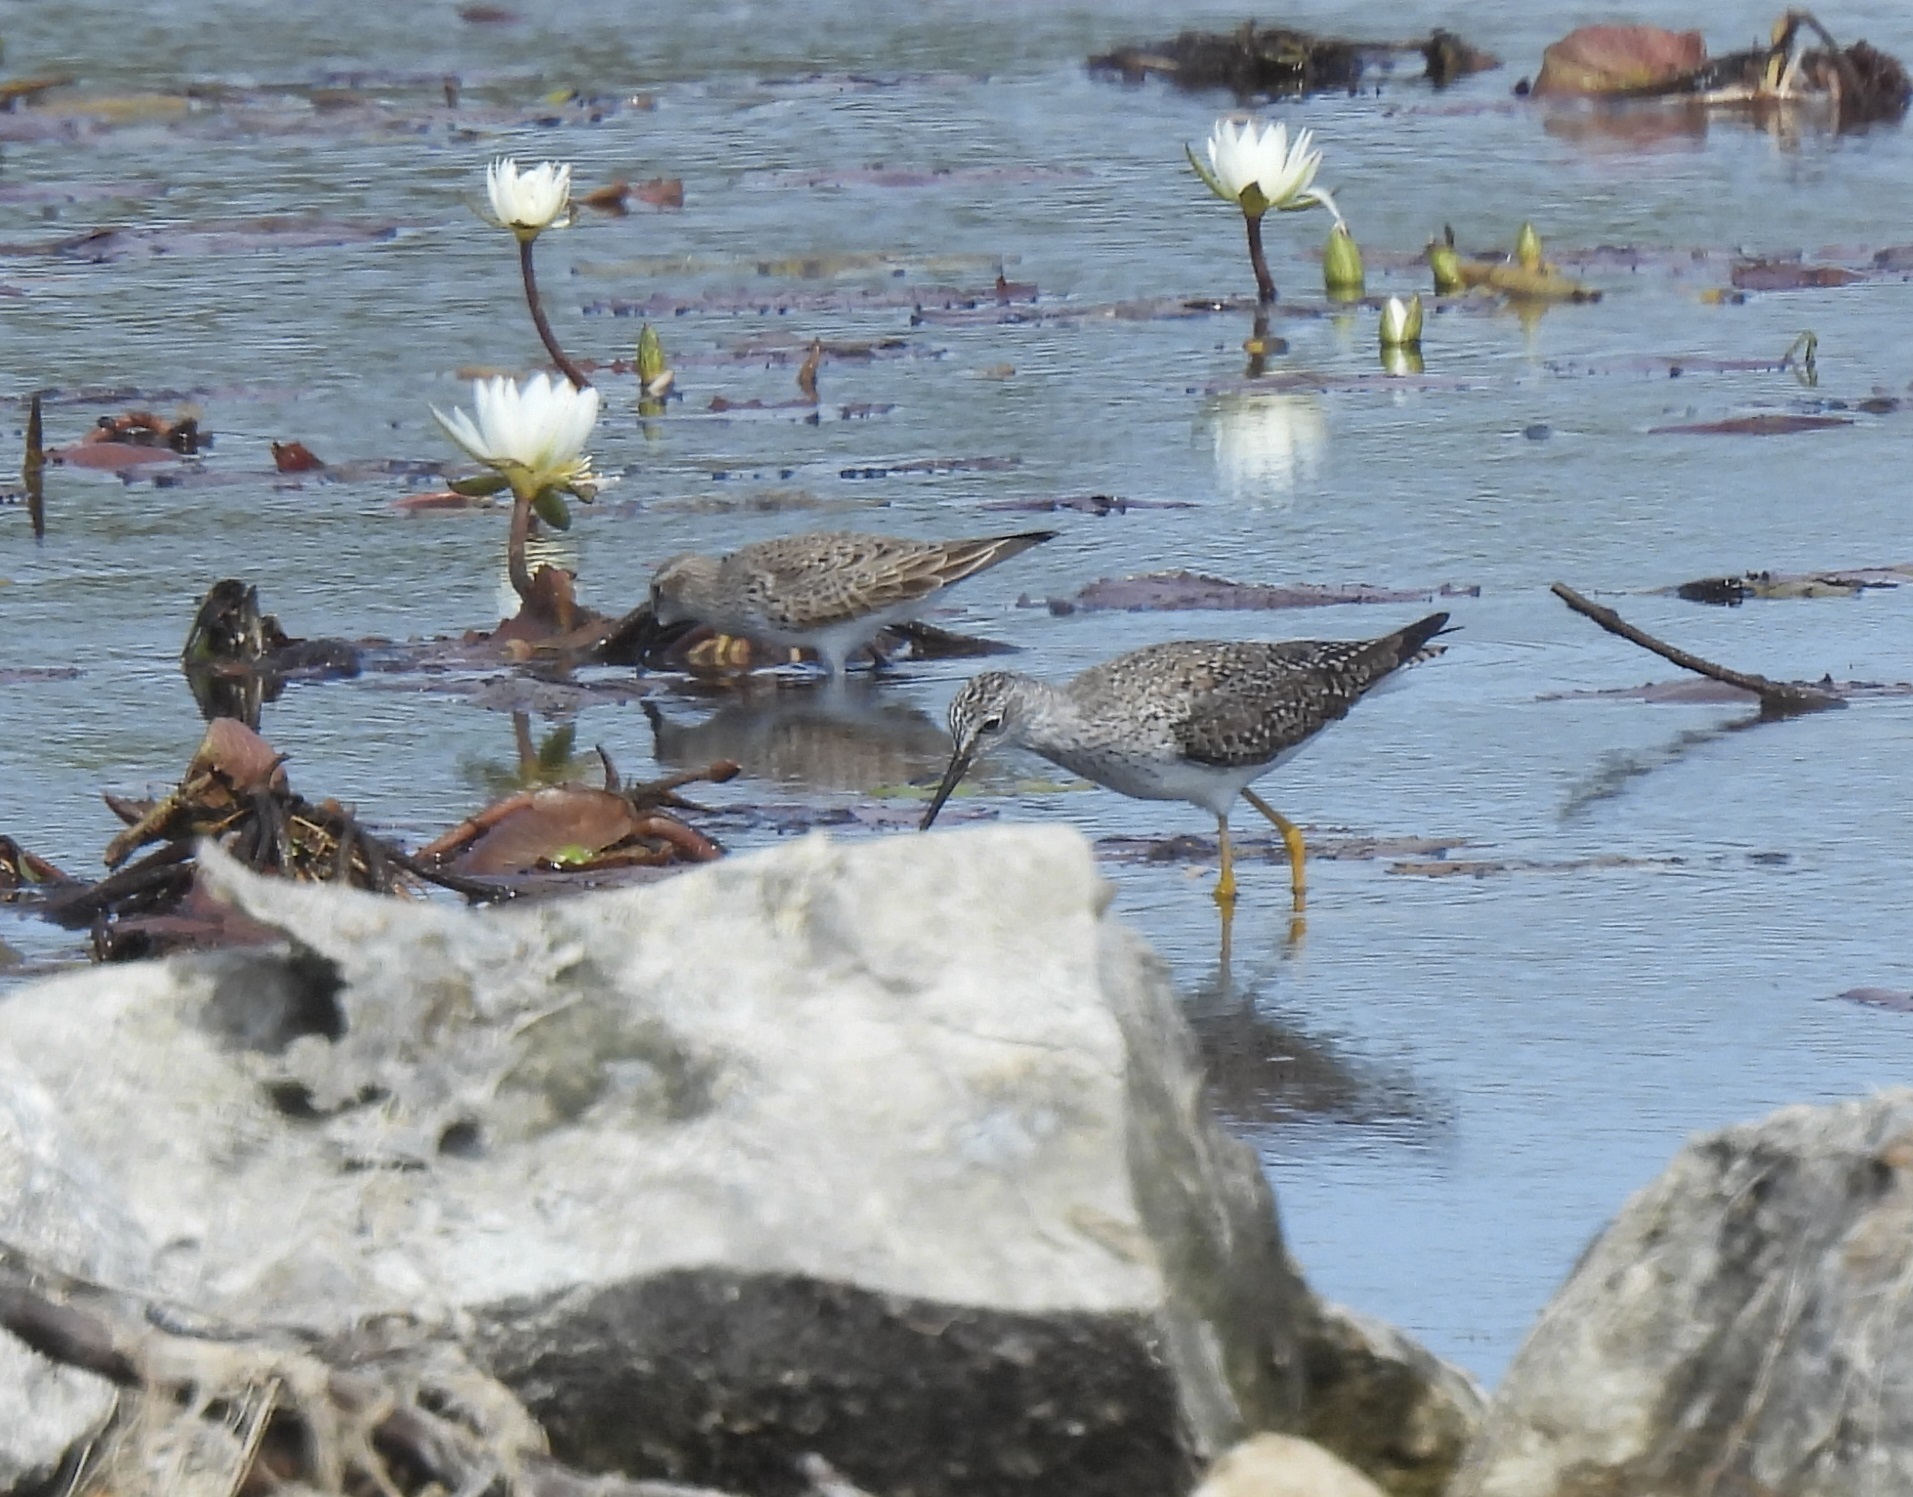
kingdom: Animalia
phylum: Chordata
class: Aves
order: Charadriiformes
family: Scolopacidae
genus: Tringa
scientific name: Tringa flavipes
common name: Lesser yellowlegs
